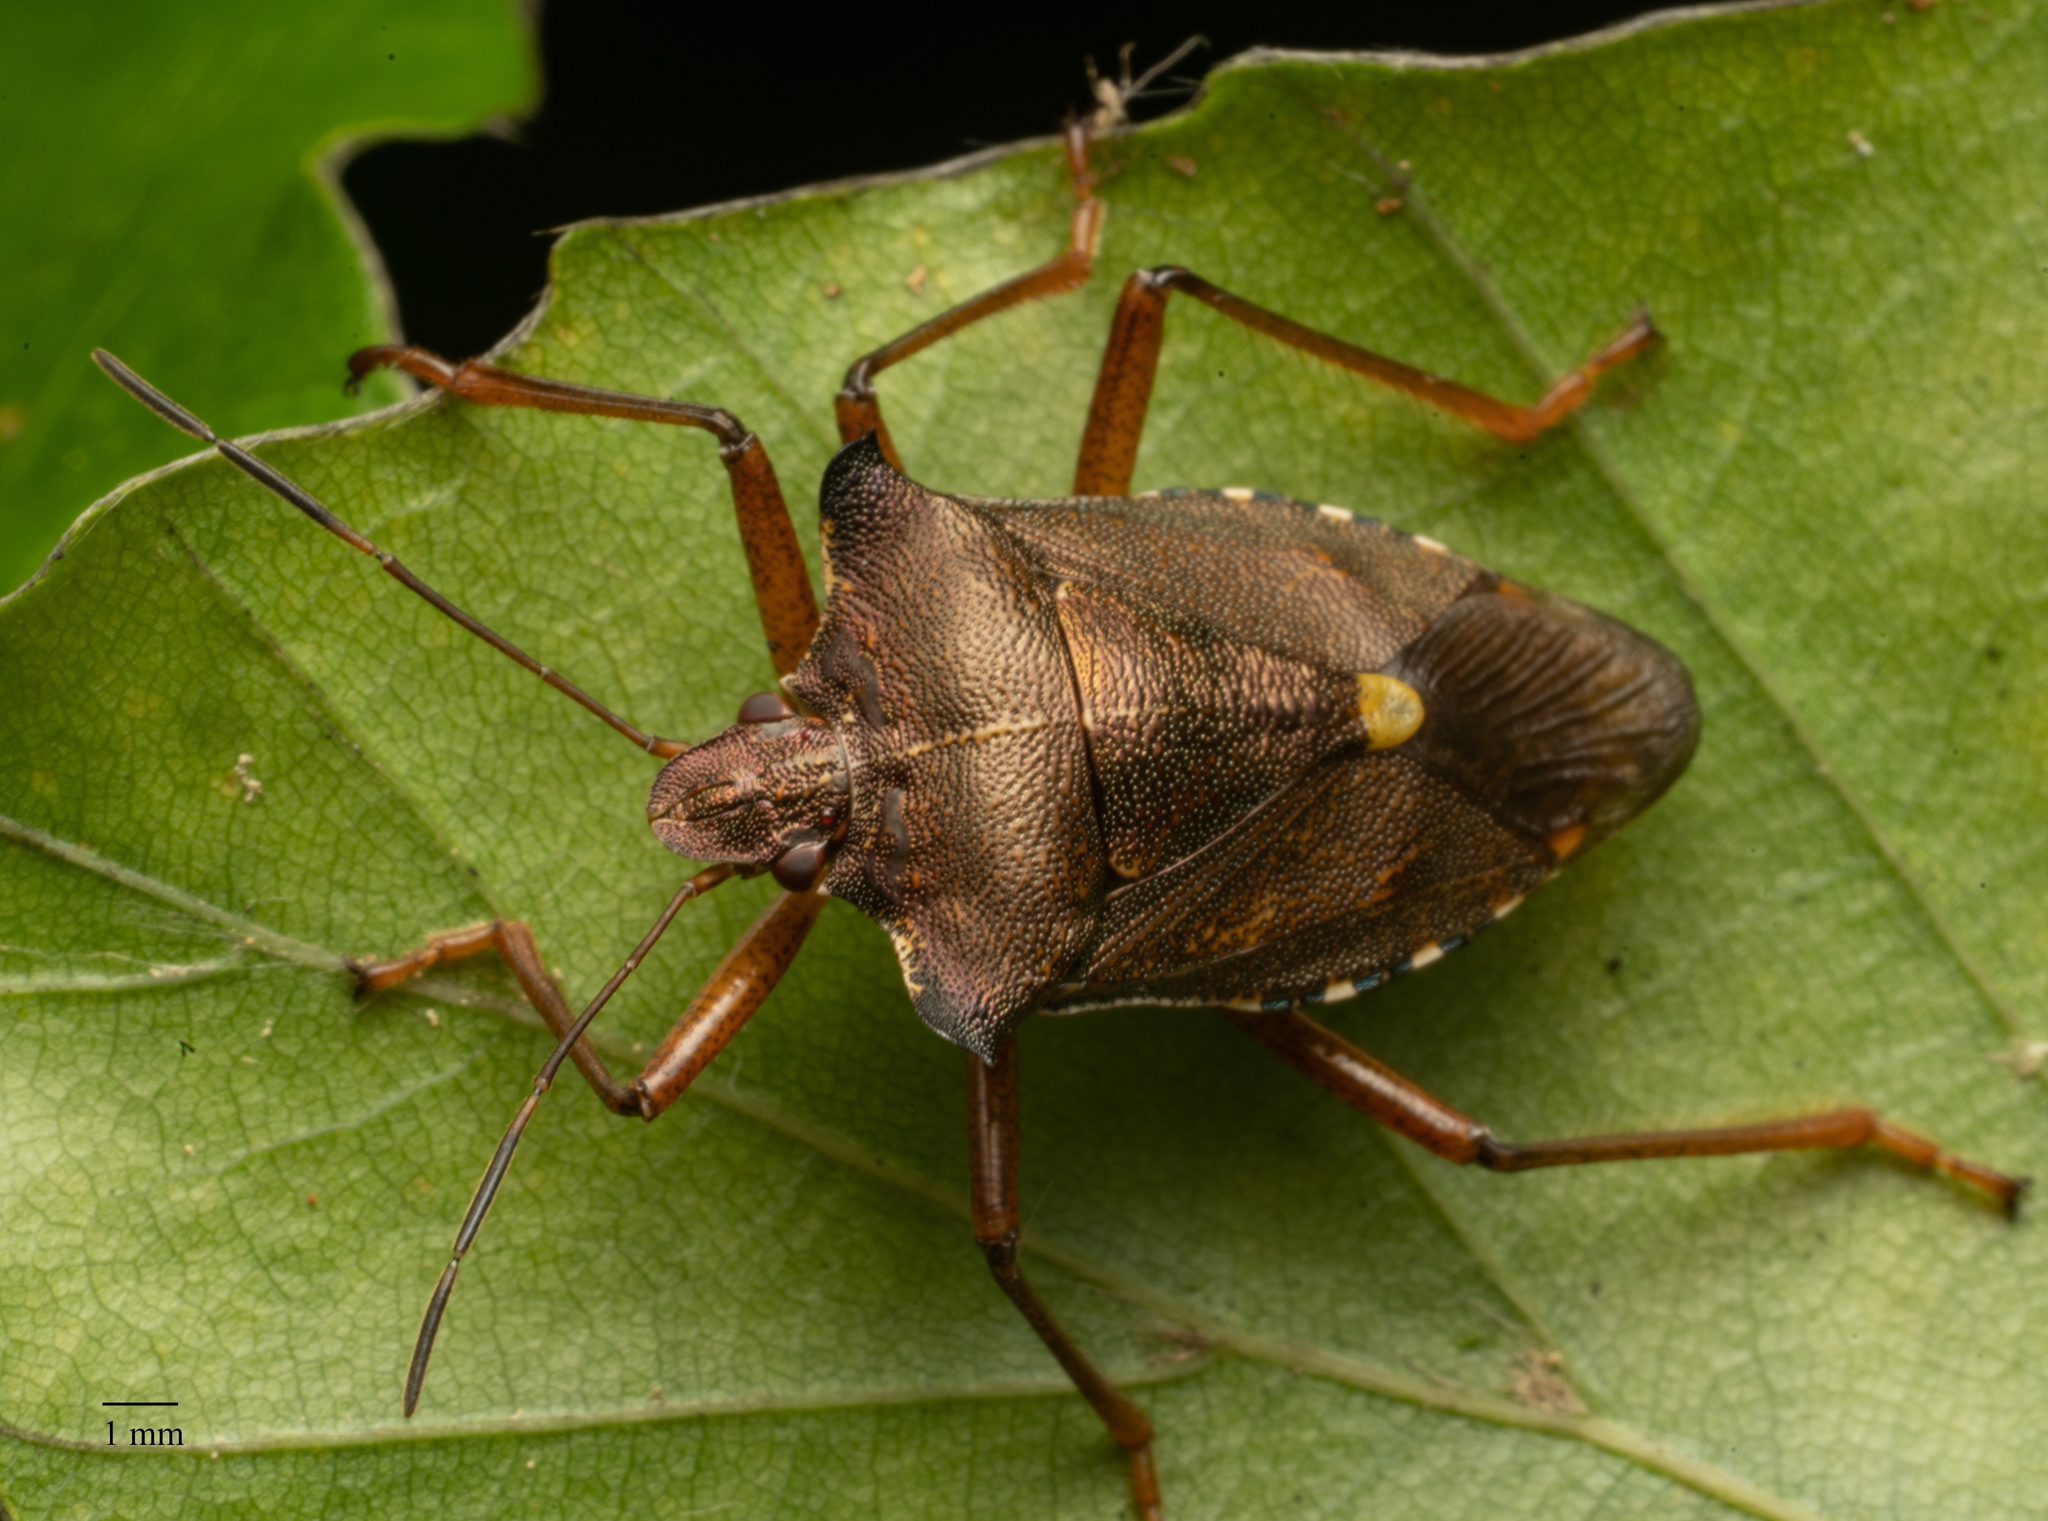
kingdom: Animalia
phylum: Arthropoda
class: Insecta
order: Hemiptera
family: Pentatomidae
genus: Pentatoma
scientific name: Pentatoma rufipes
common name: Forest bug
